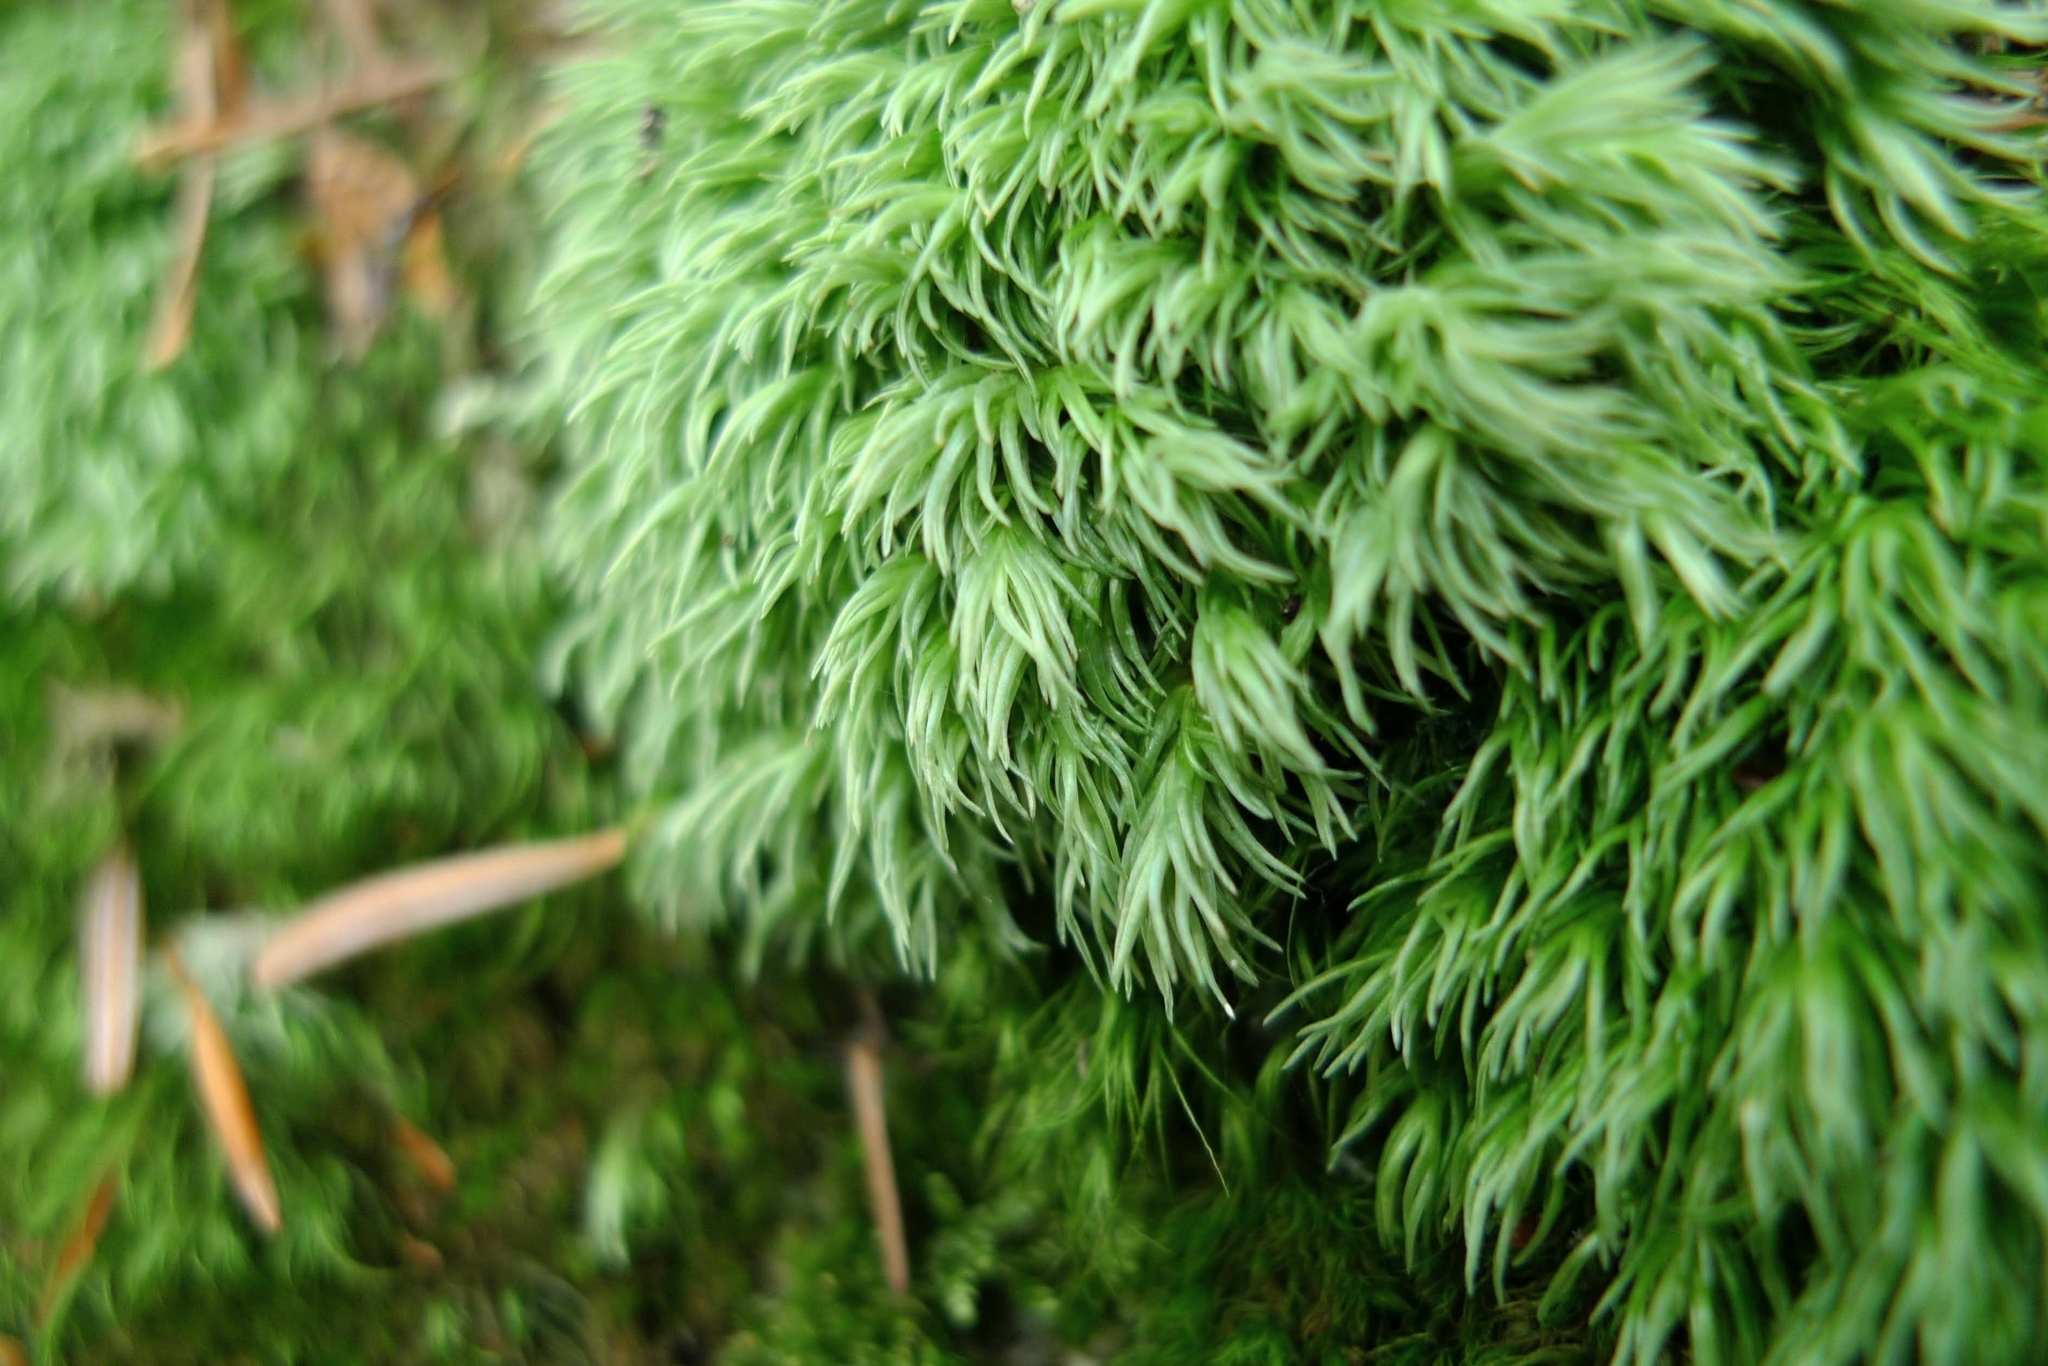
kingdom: Plantae
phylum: Bryophyta
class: Bryopsida
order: Dicranales
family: Leucobryaceae
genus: Leucobryum
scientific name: Leucobryum glaucum
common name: Large white-moss
